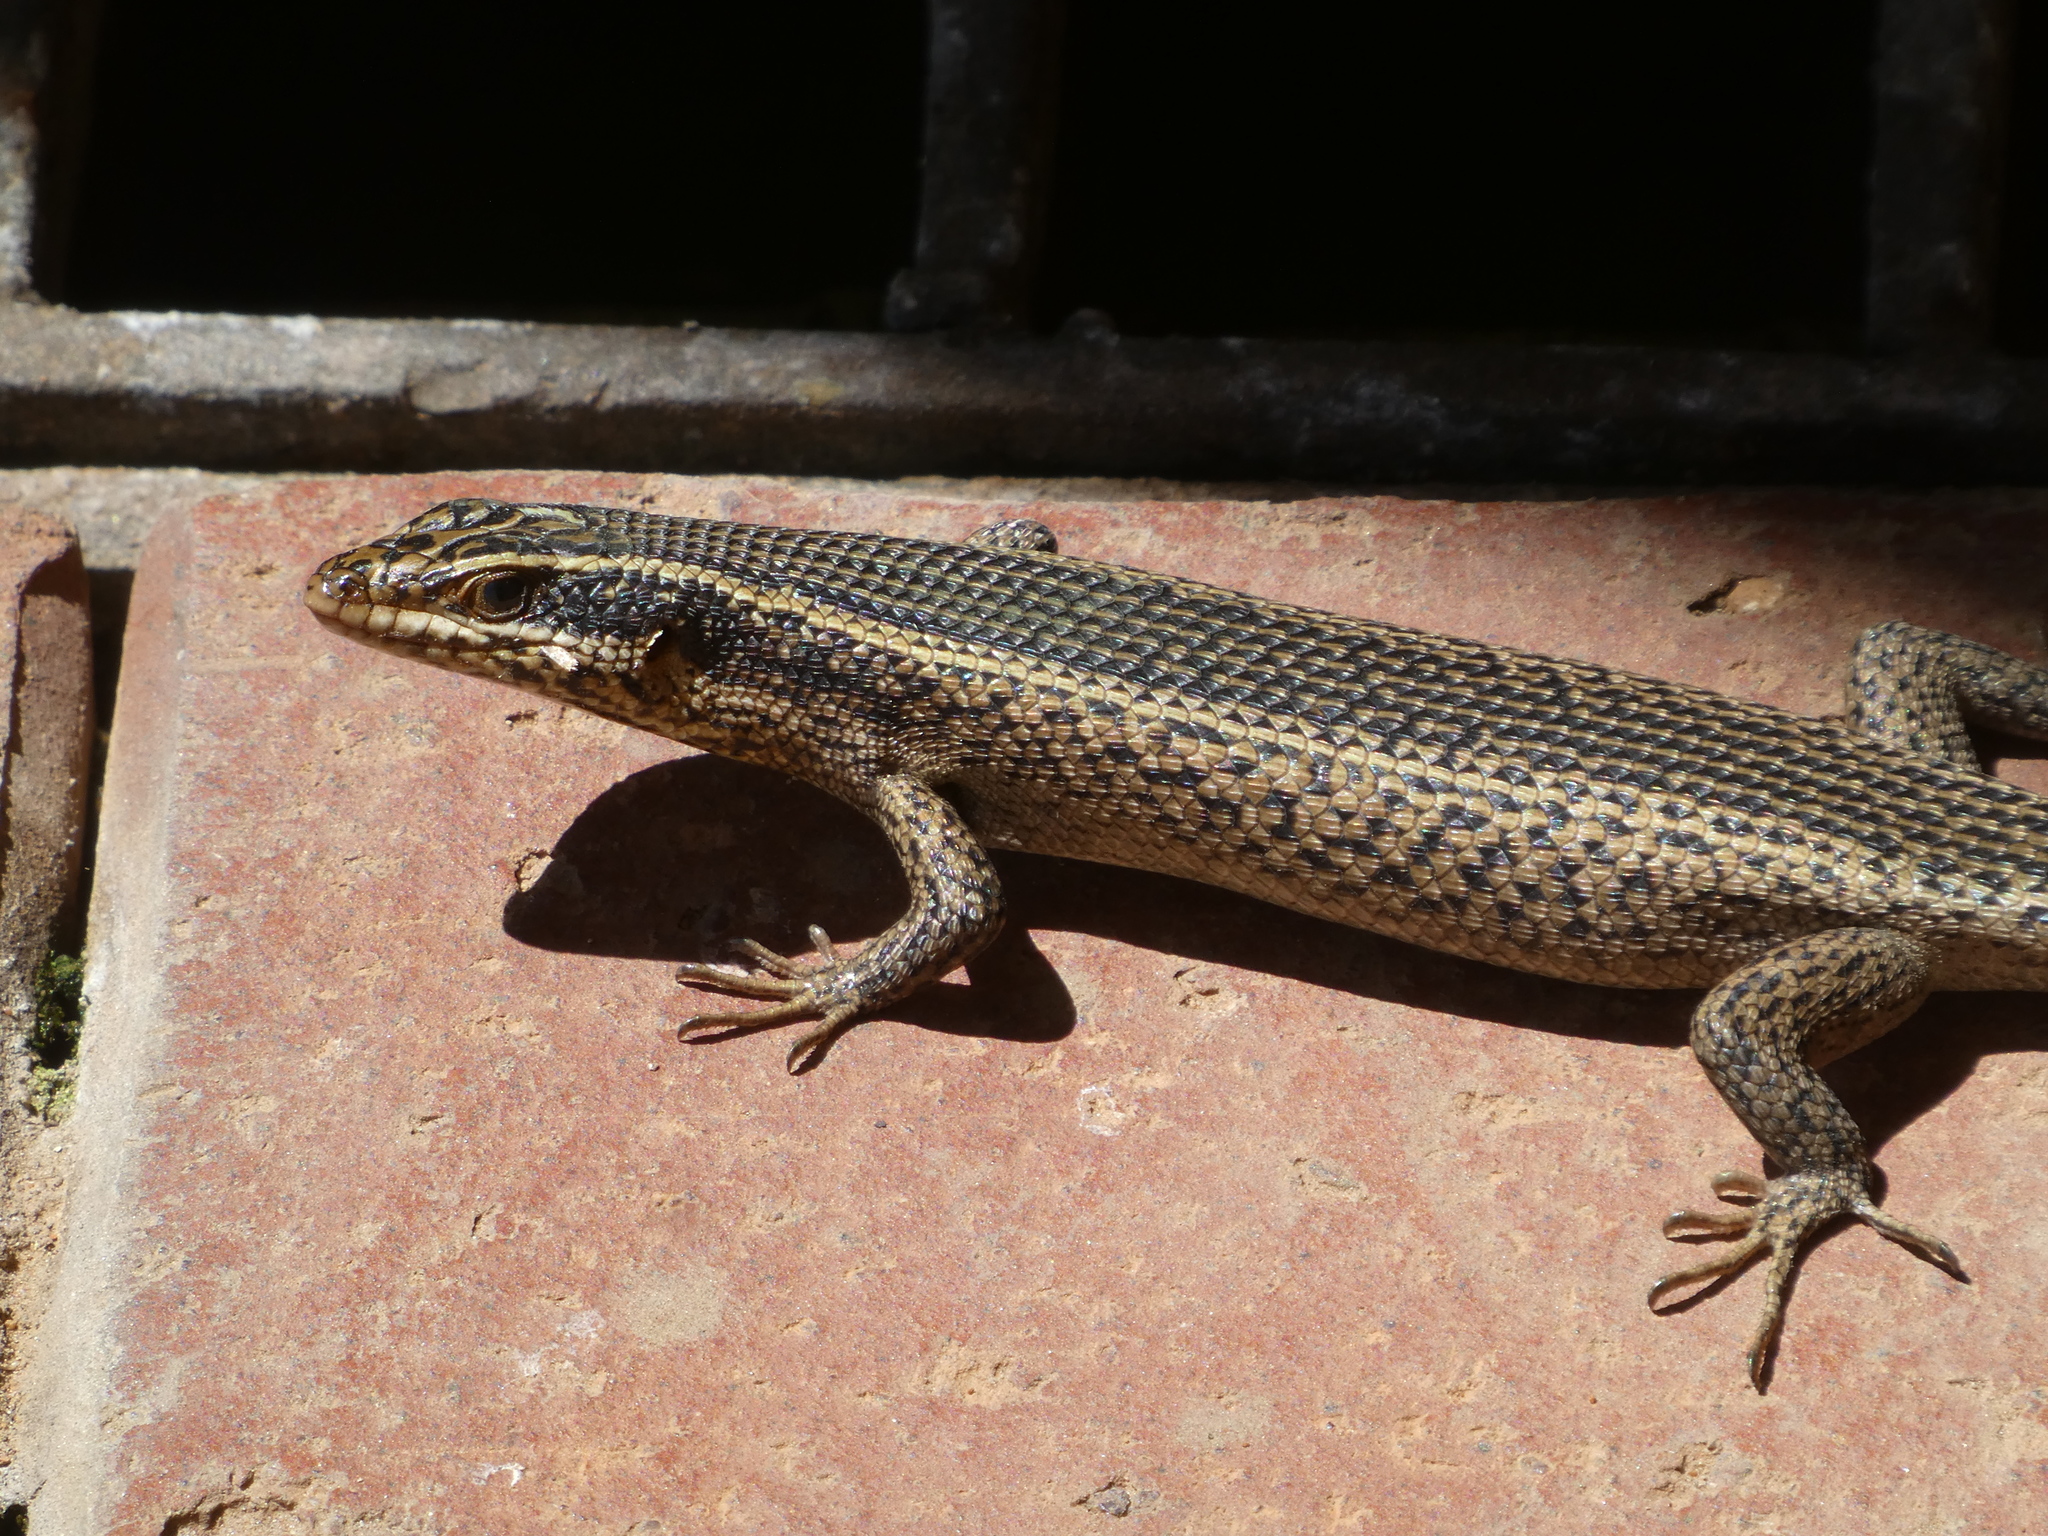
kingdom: Animalia
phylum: Chordata
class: Squamata
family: Scincidae
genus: Trachylepis
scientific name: Trachylepis punctatissima
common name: Montane speckled skink
